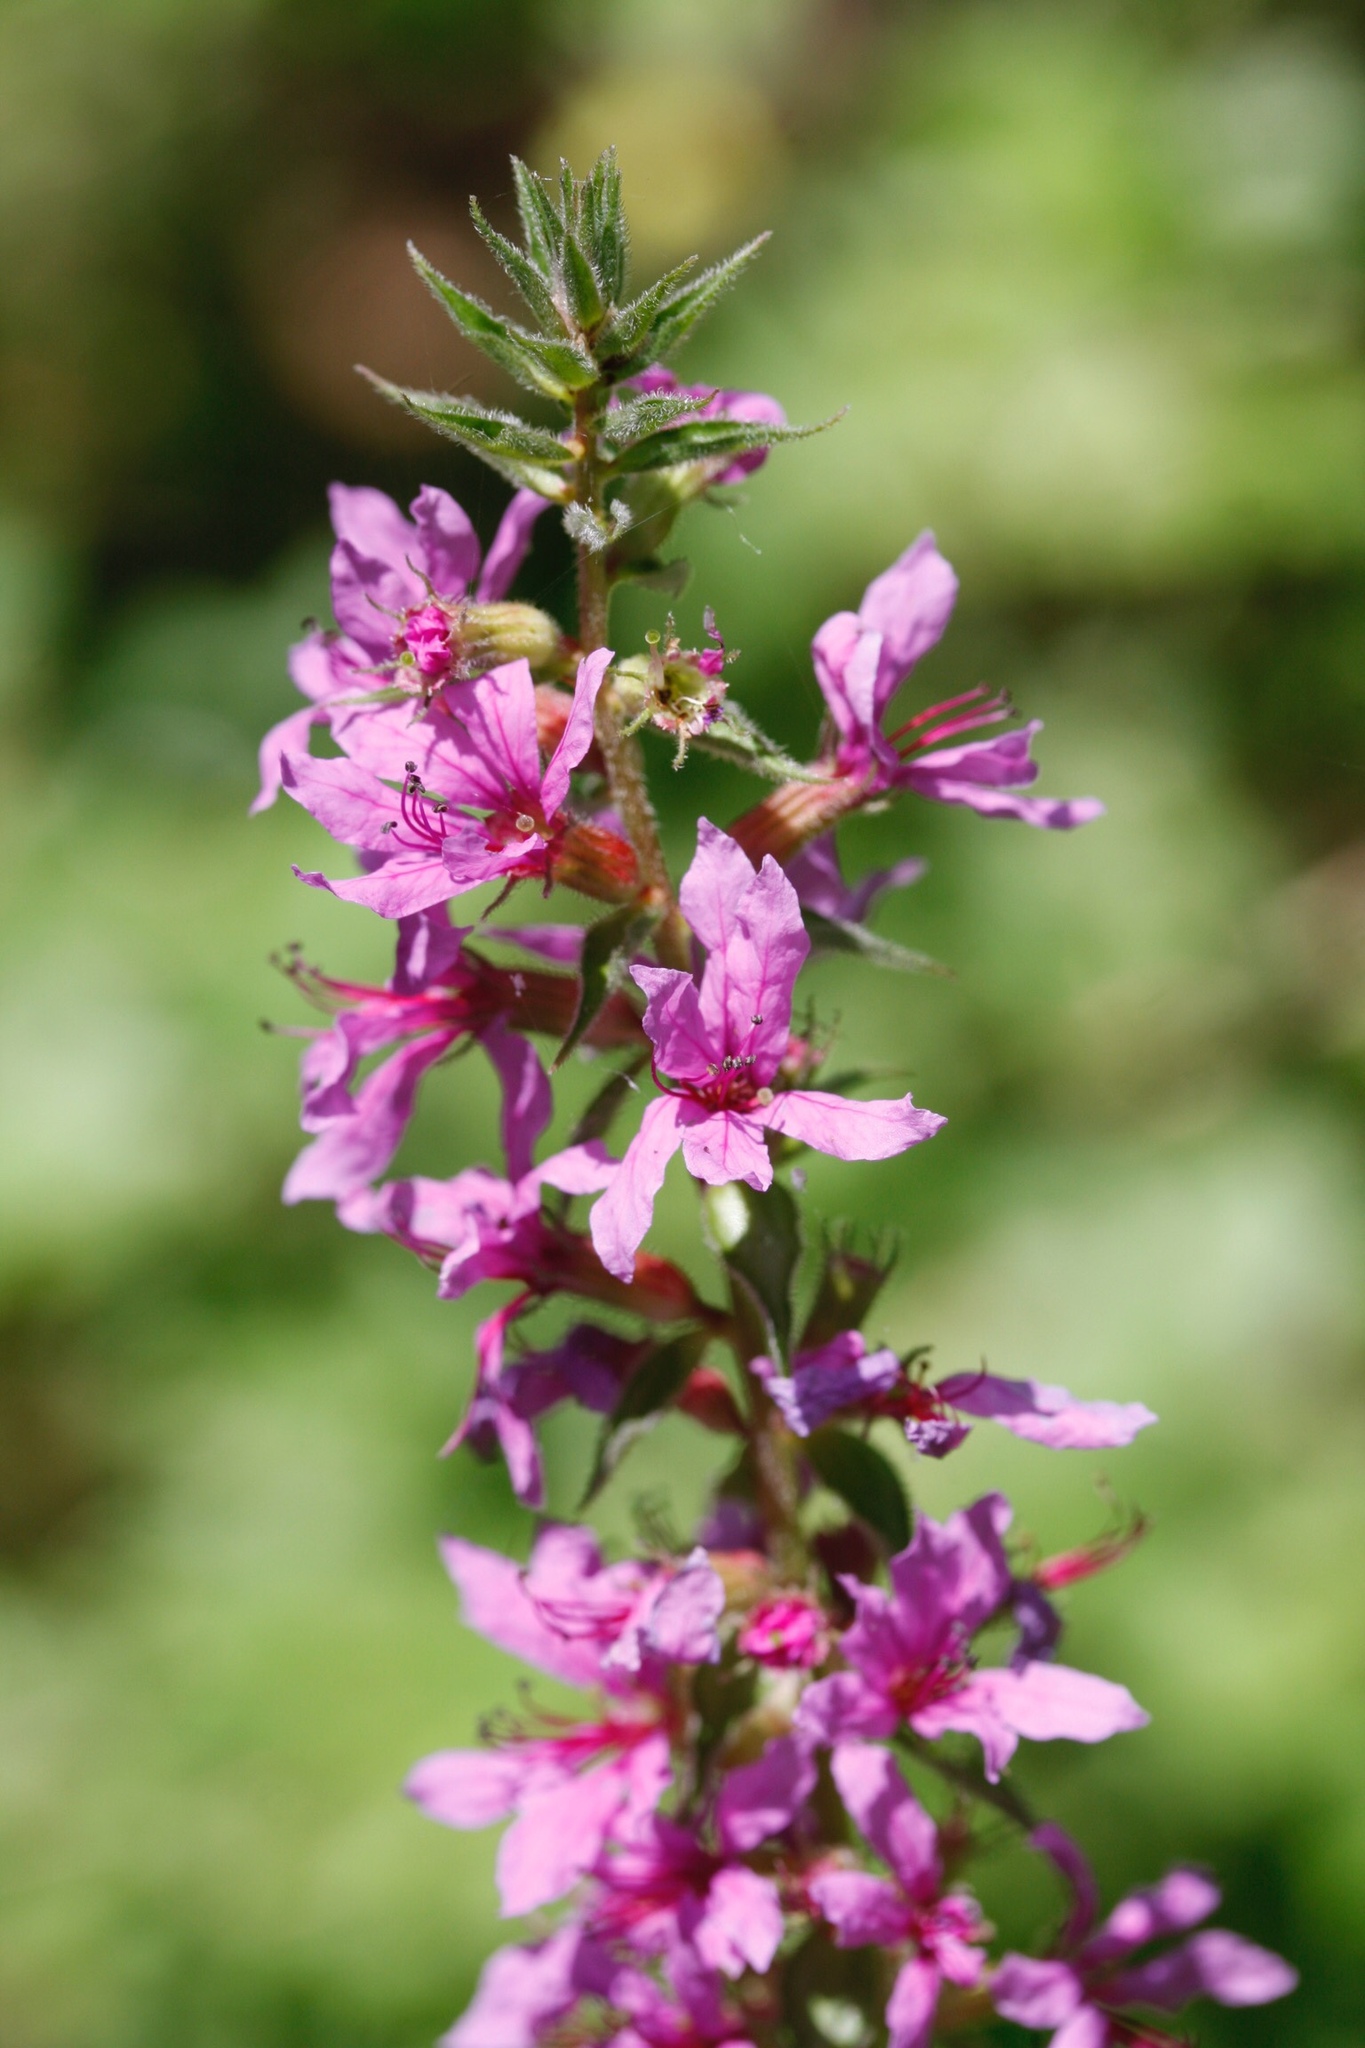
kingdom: Plantae
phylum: Tracheophyta
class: Magnoliopsida
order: Myrtales
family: Lythraceae
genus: Lythrum
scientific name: Lythrum salicaria
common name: Purple loosestrife
